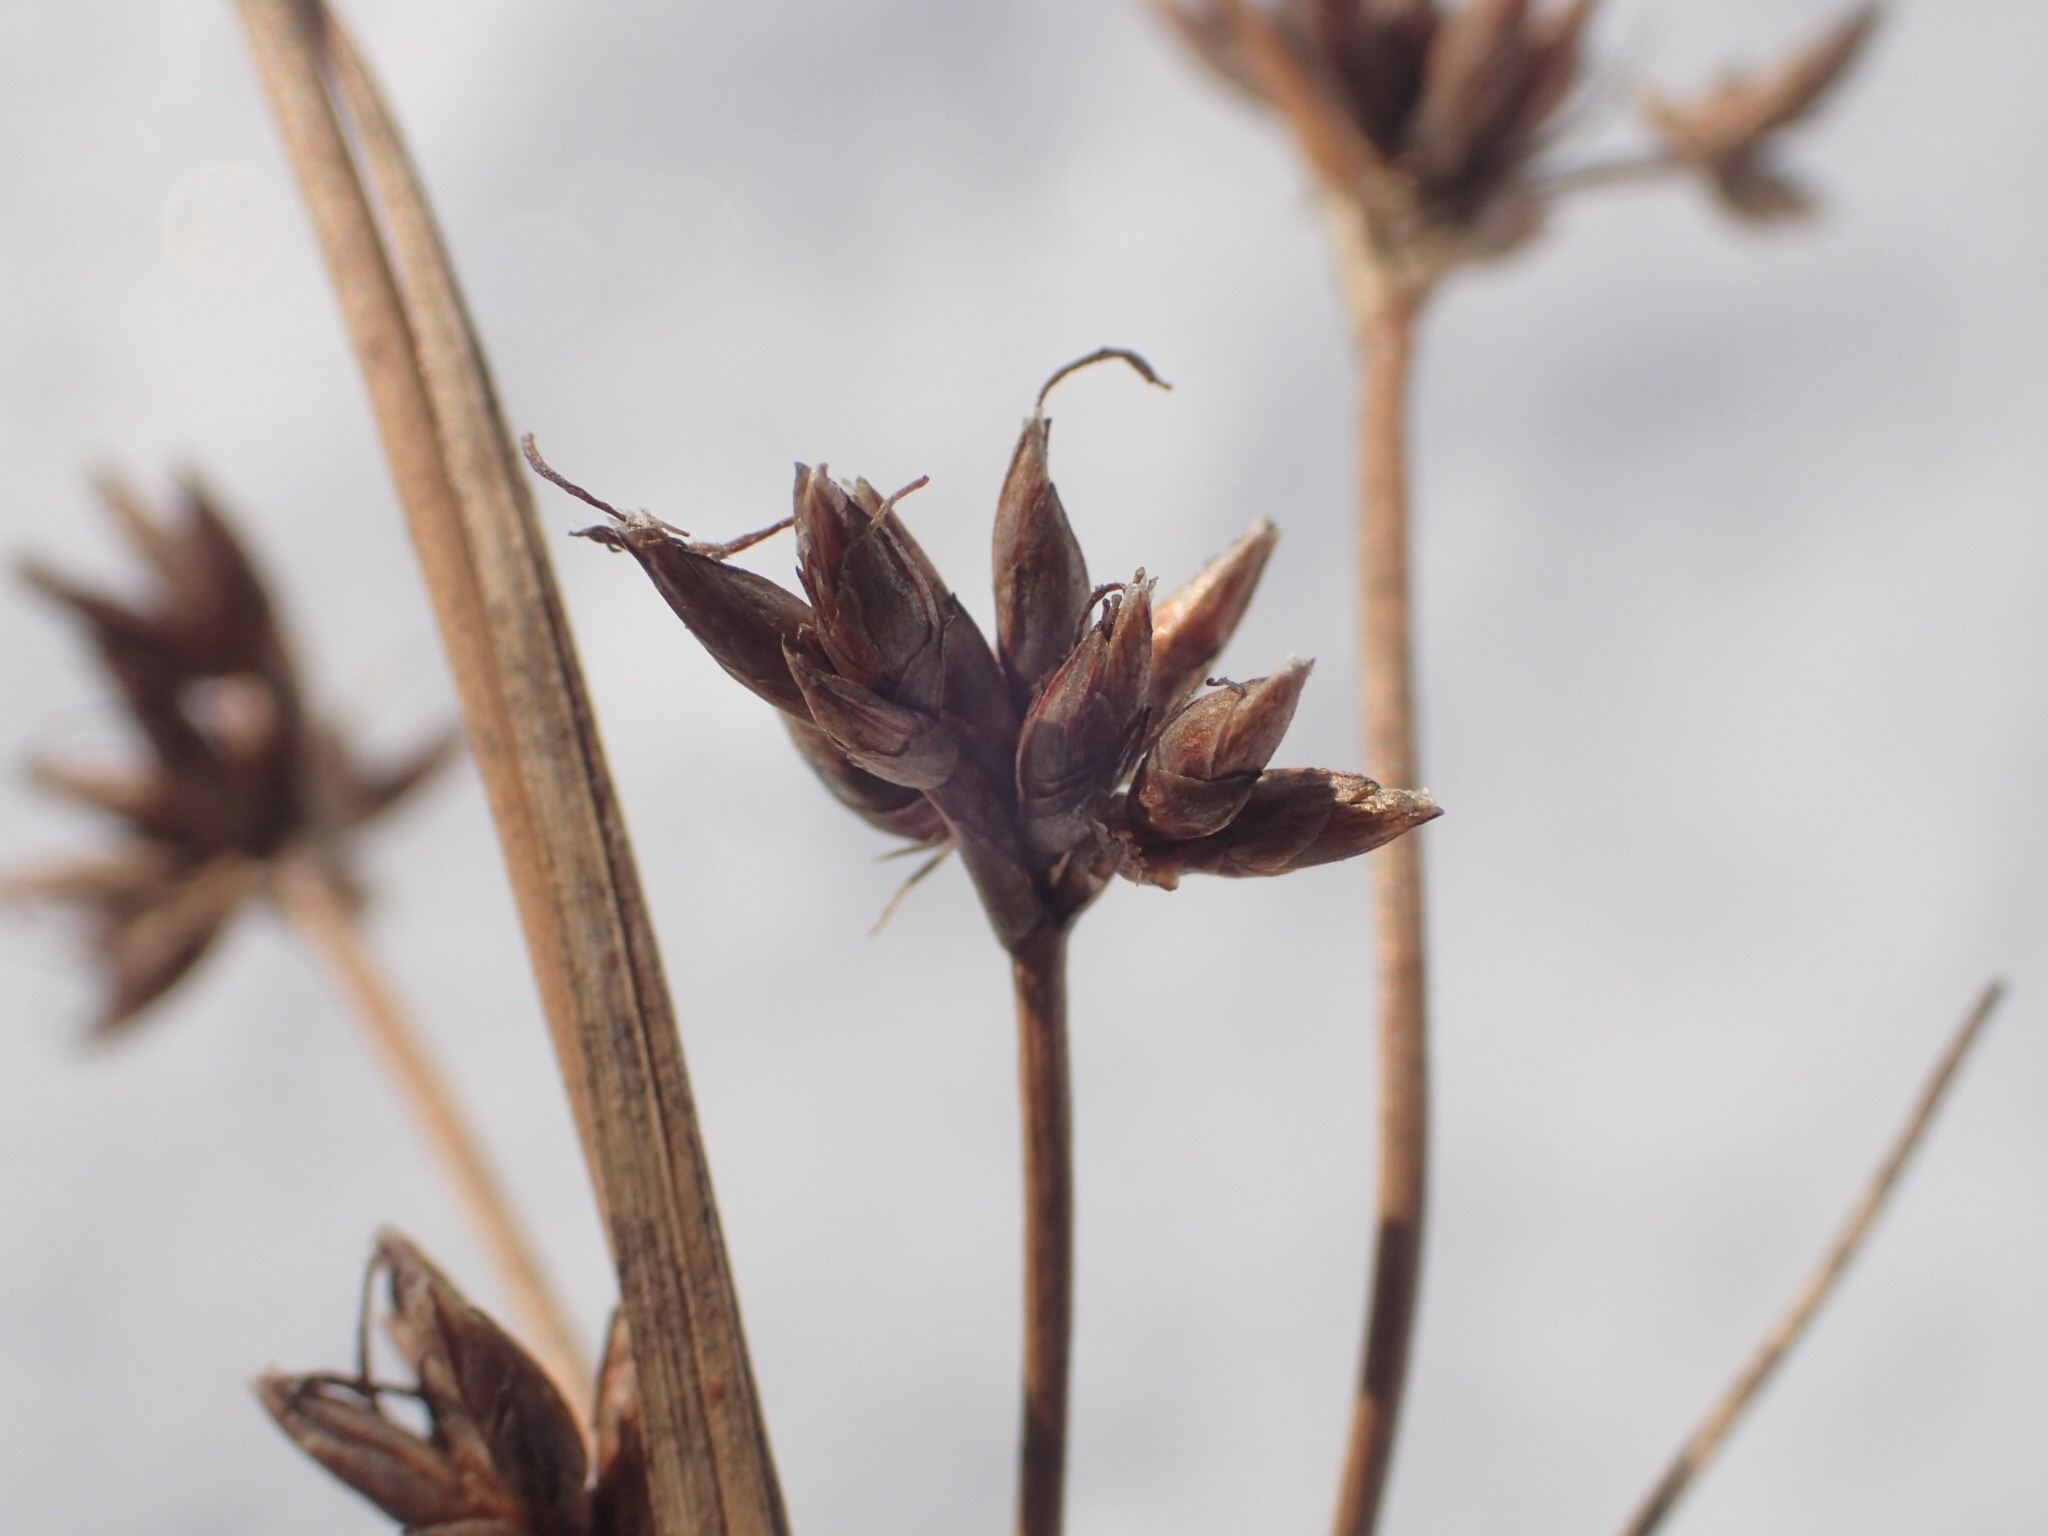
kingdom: Plantae
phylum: Tracheophyta
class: Liliopsida
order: Poales
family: Cyperaceae
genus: Cladium
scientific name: Cladium mariscoides
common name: Smooth sawgrass
